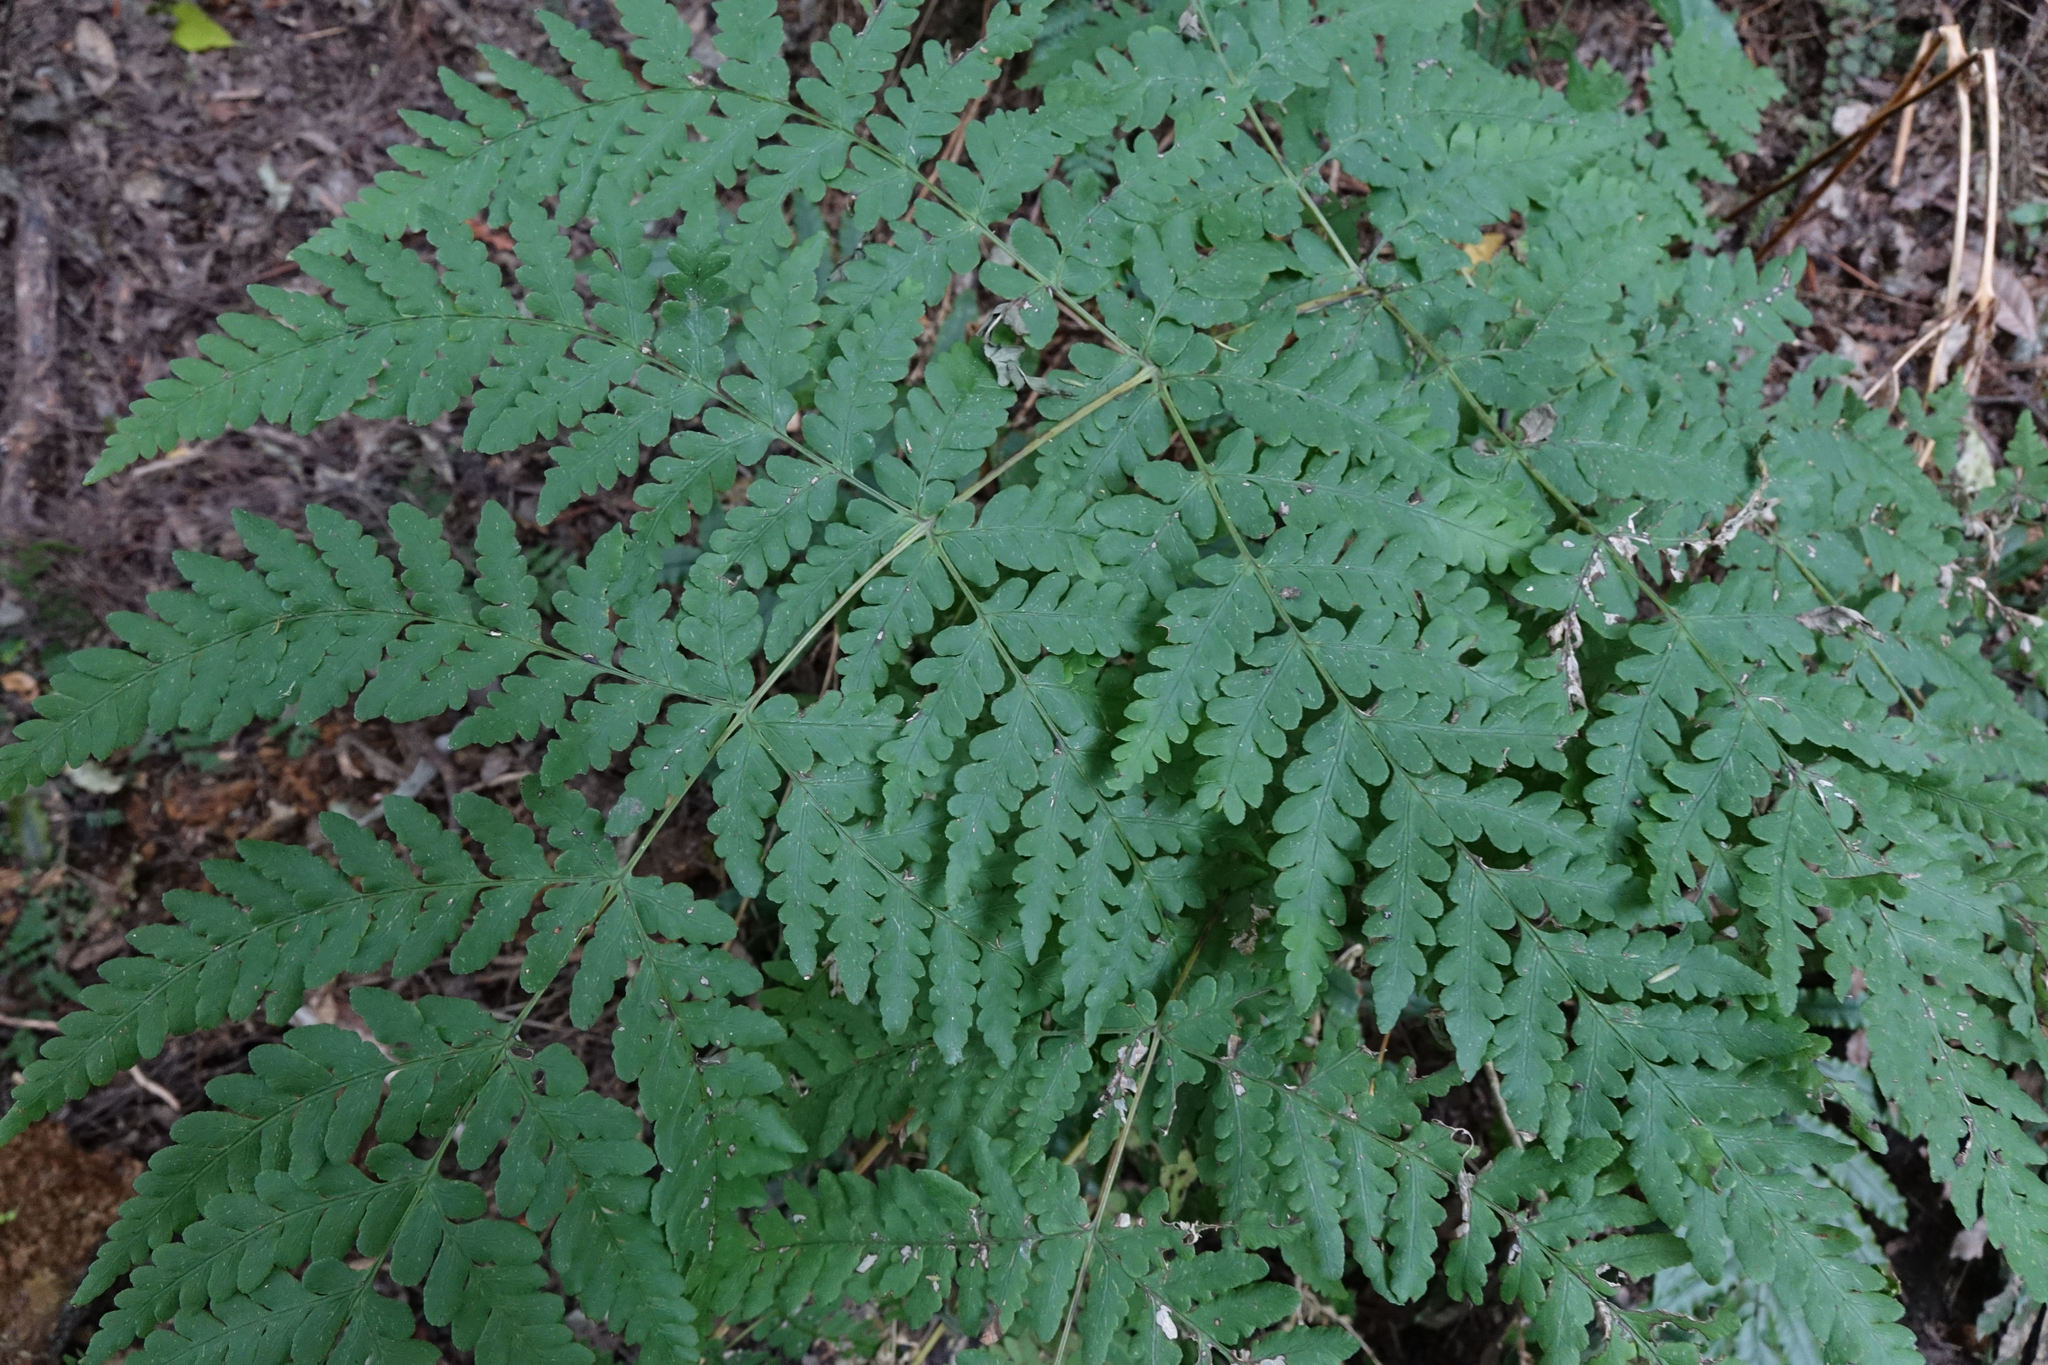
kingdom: Plantae
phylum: Tracheophyta
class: Polypodiopsida
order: Polypodiales
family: Dennstaedtiaceae
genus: Histiopteris
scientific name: Histiopteris incisa
